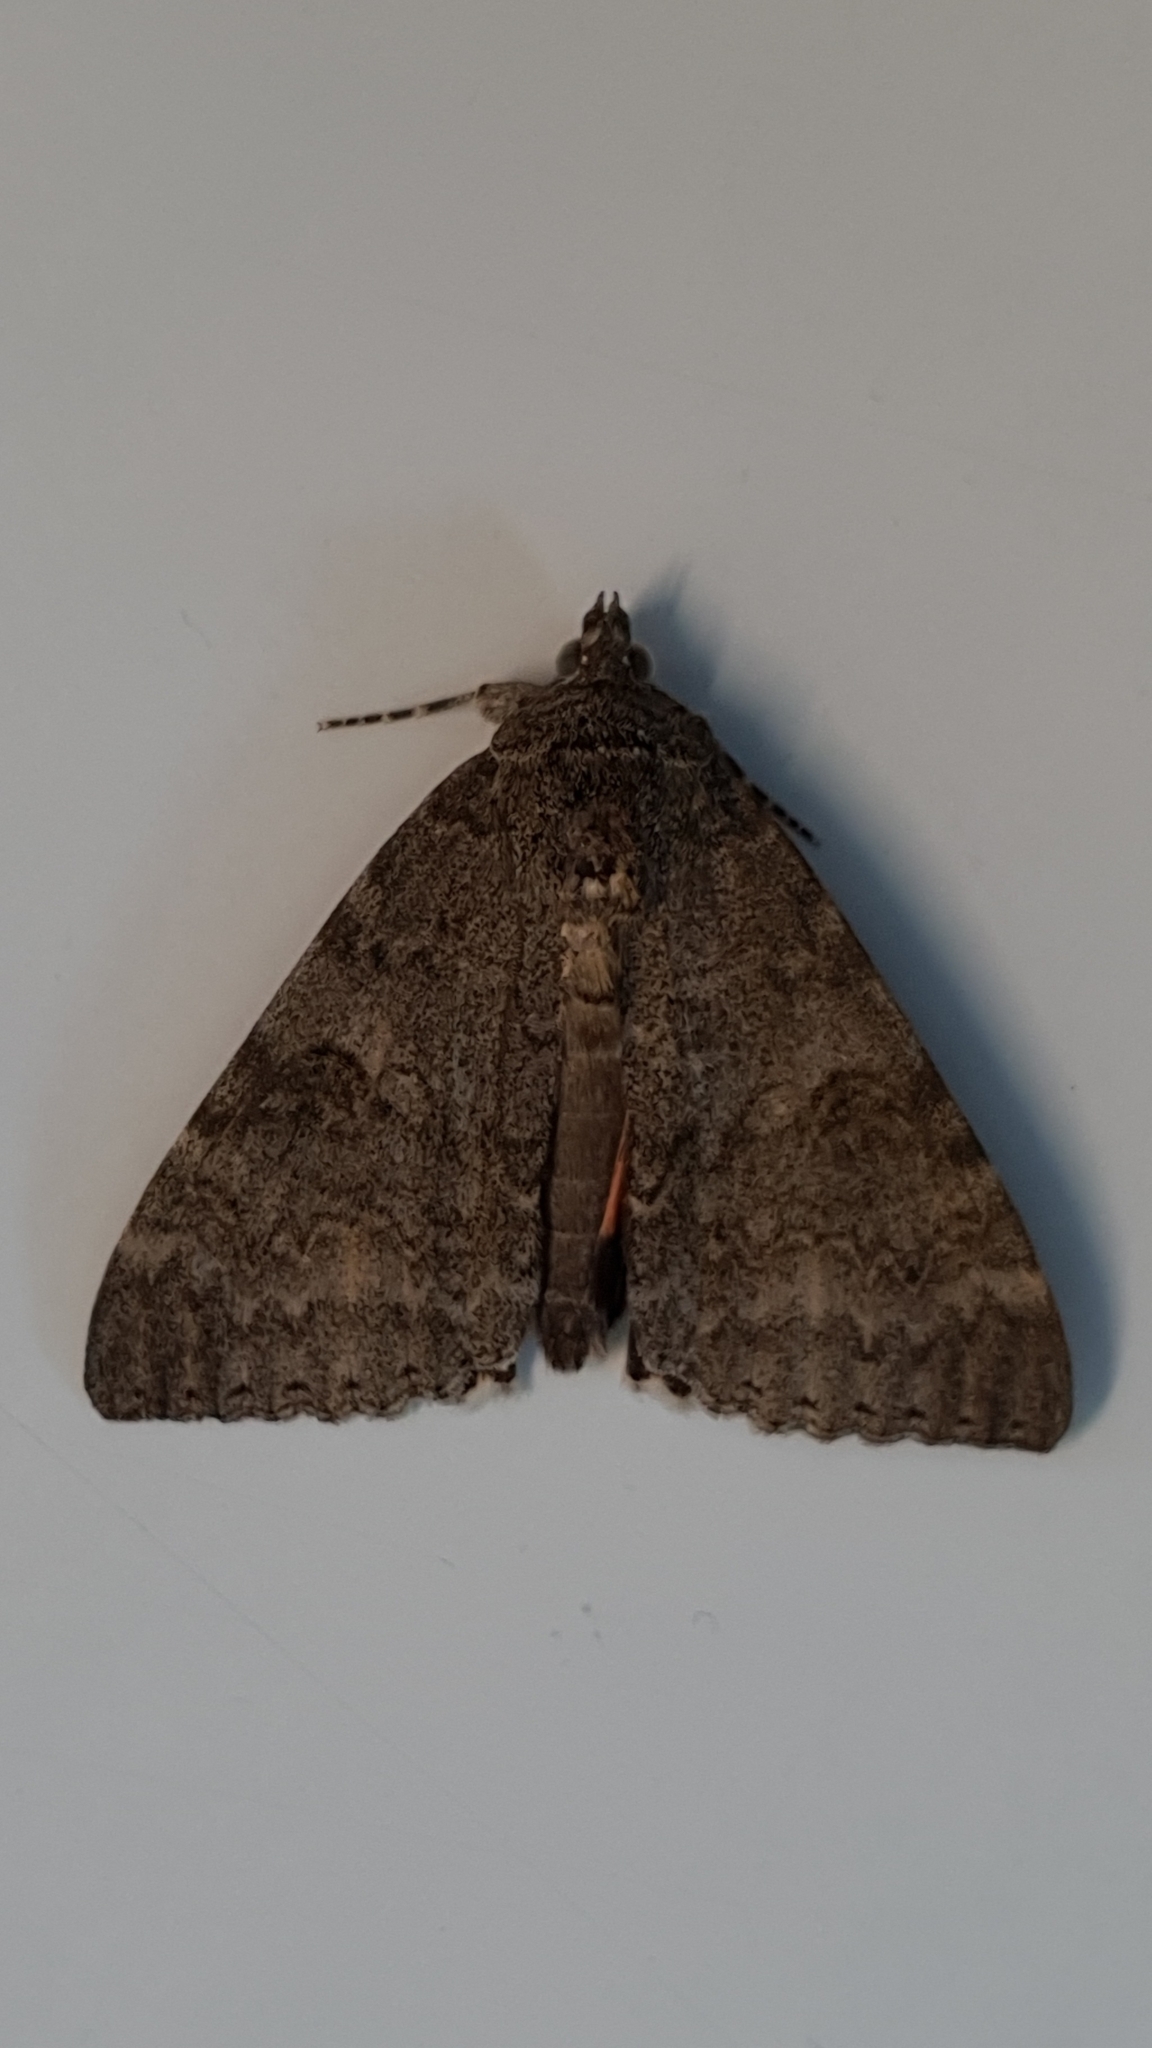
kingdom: Animalia
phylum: Arthropoda
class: Insecta
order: Lepidoptera
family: Erebidae
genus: Catocala
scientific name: Catocala nupta
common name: Red underwing
